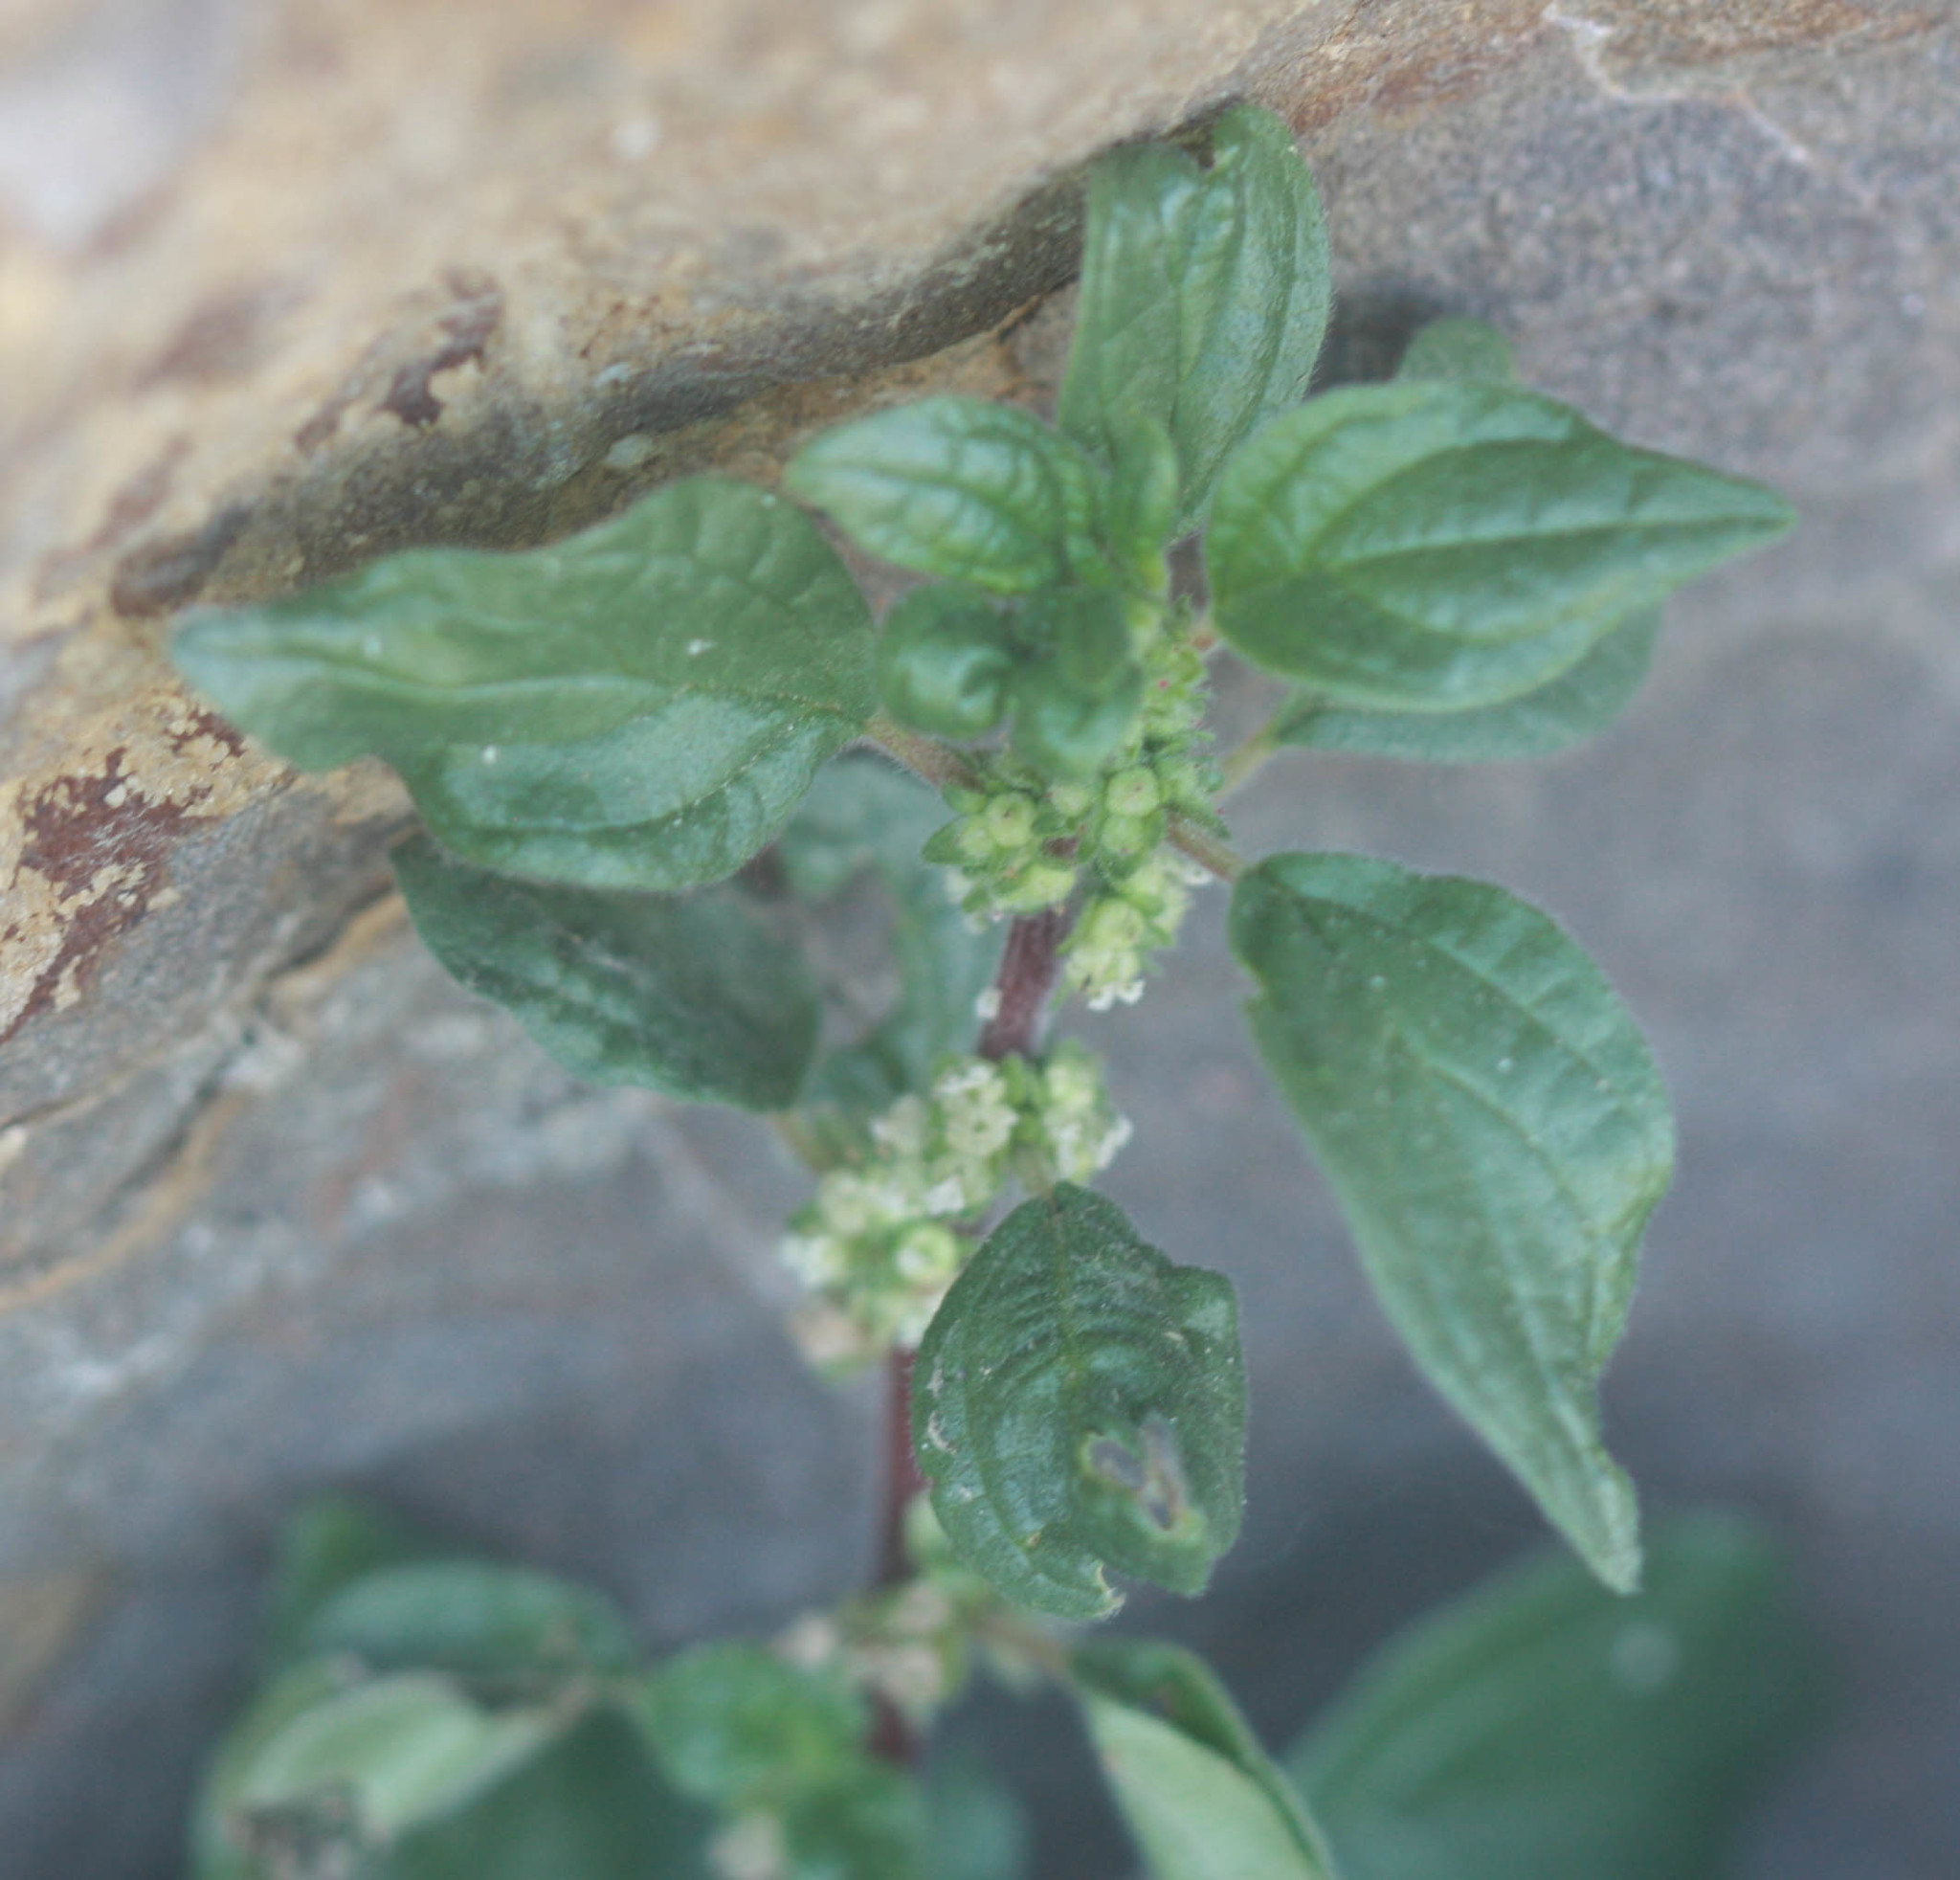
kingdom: Plantae
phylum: Tracheophyta
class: Magnoliopsida
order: Rosales
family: Urticaceae
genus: Parietaria
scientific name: Parietaria judaica
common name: Pellitory-of-the-wall
